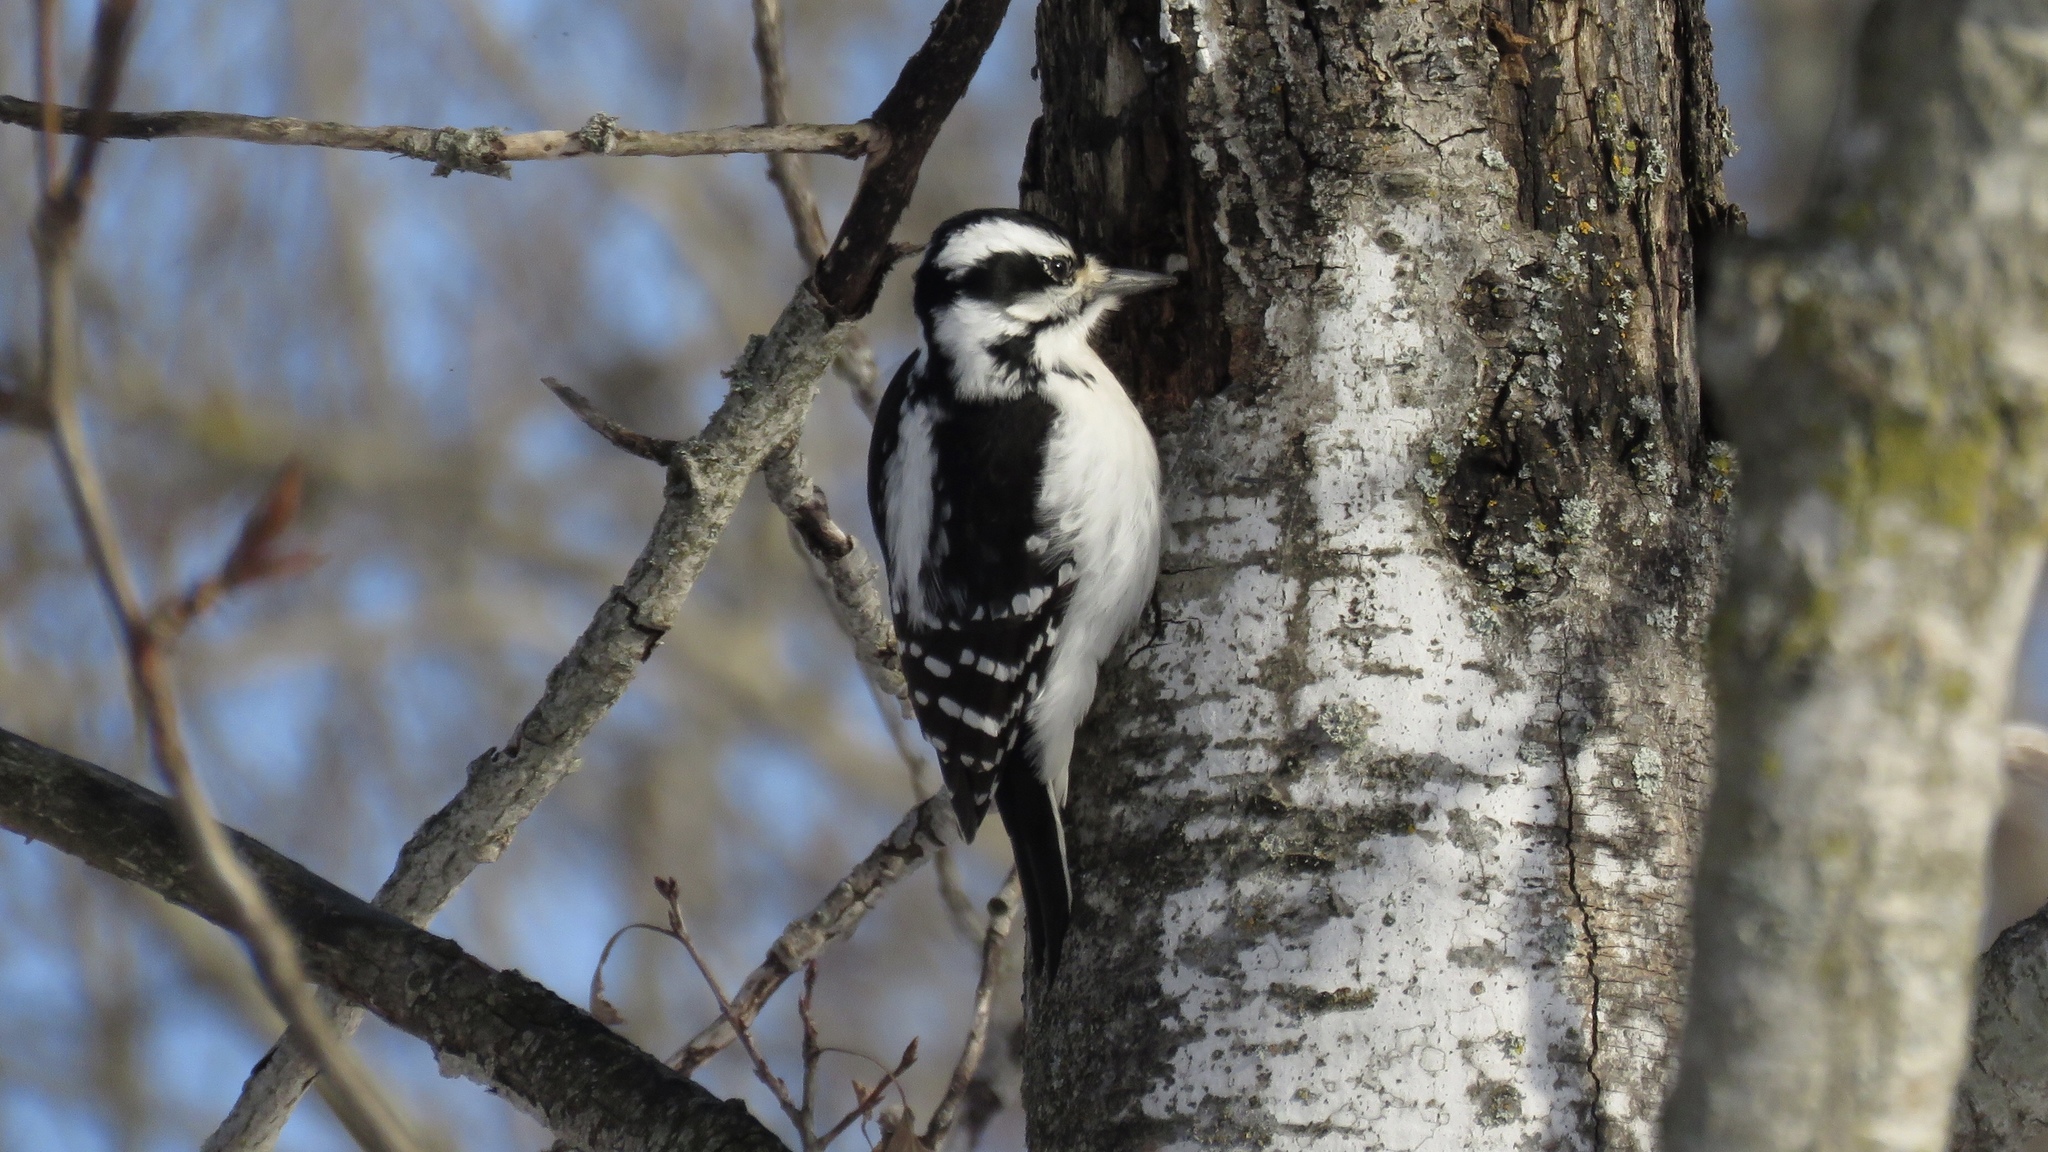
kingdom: Animalia
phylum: Chordata
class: Aves
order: Piciformes
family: Picidae
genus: Leuconotopicus
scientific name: Leuconotopicus villosus
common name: Hairy woodpecker
